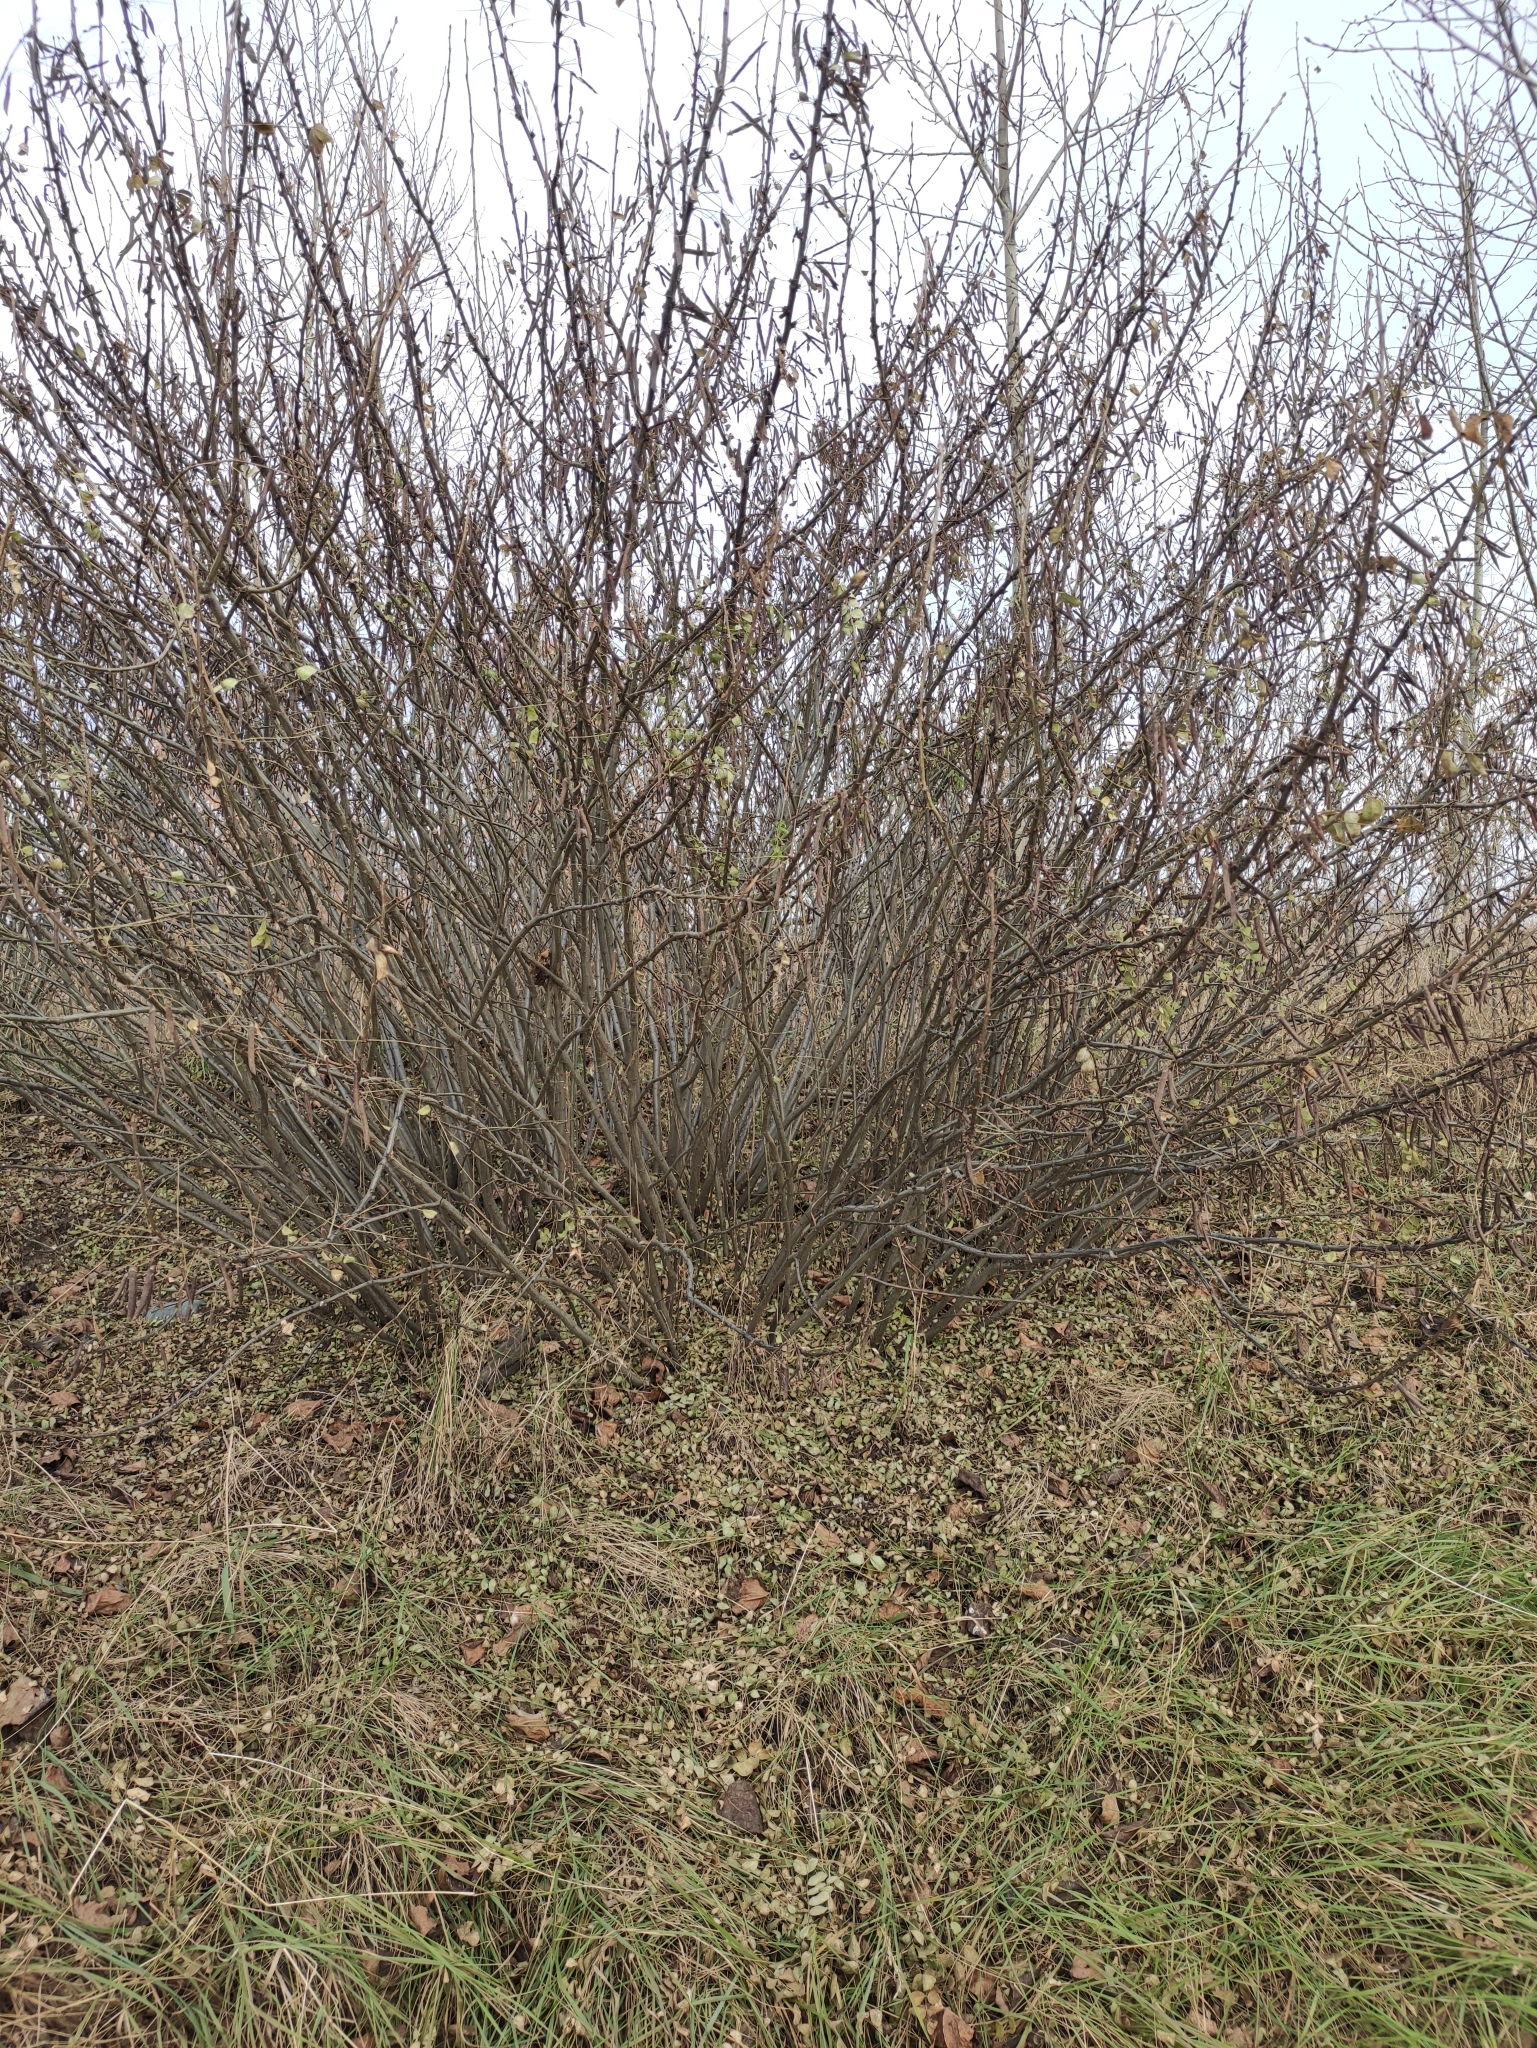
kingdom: Plantae
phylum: Tracheophyta
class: Magnoliopsida
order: Fabales
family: Fabaceae
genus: Caragana
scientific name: Caragana arborescens
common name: Siberian peashrub
